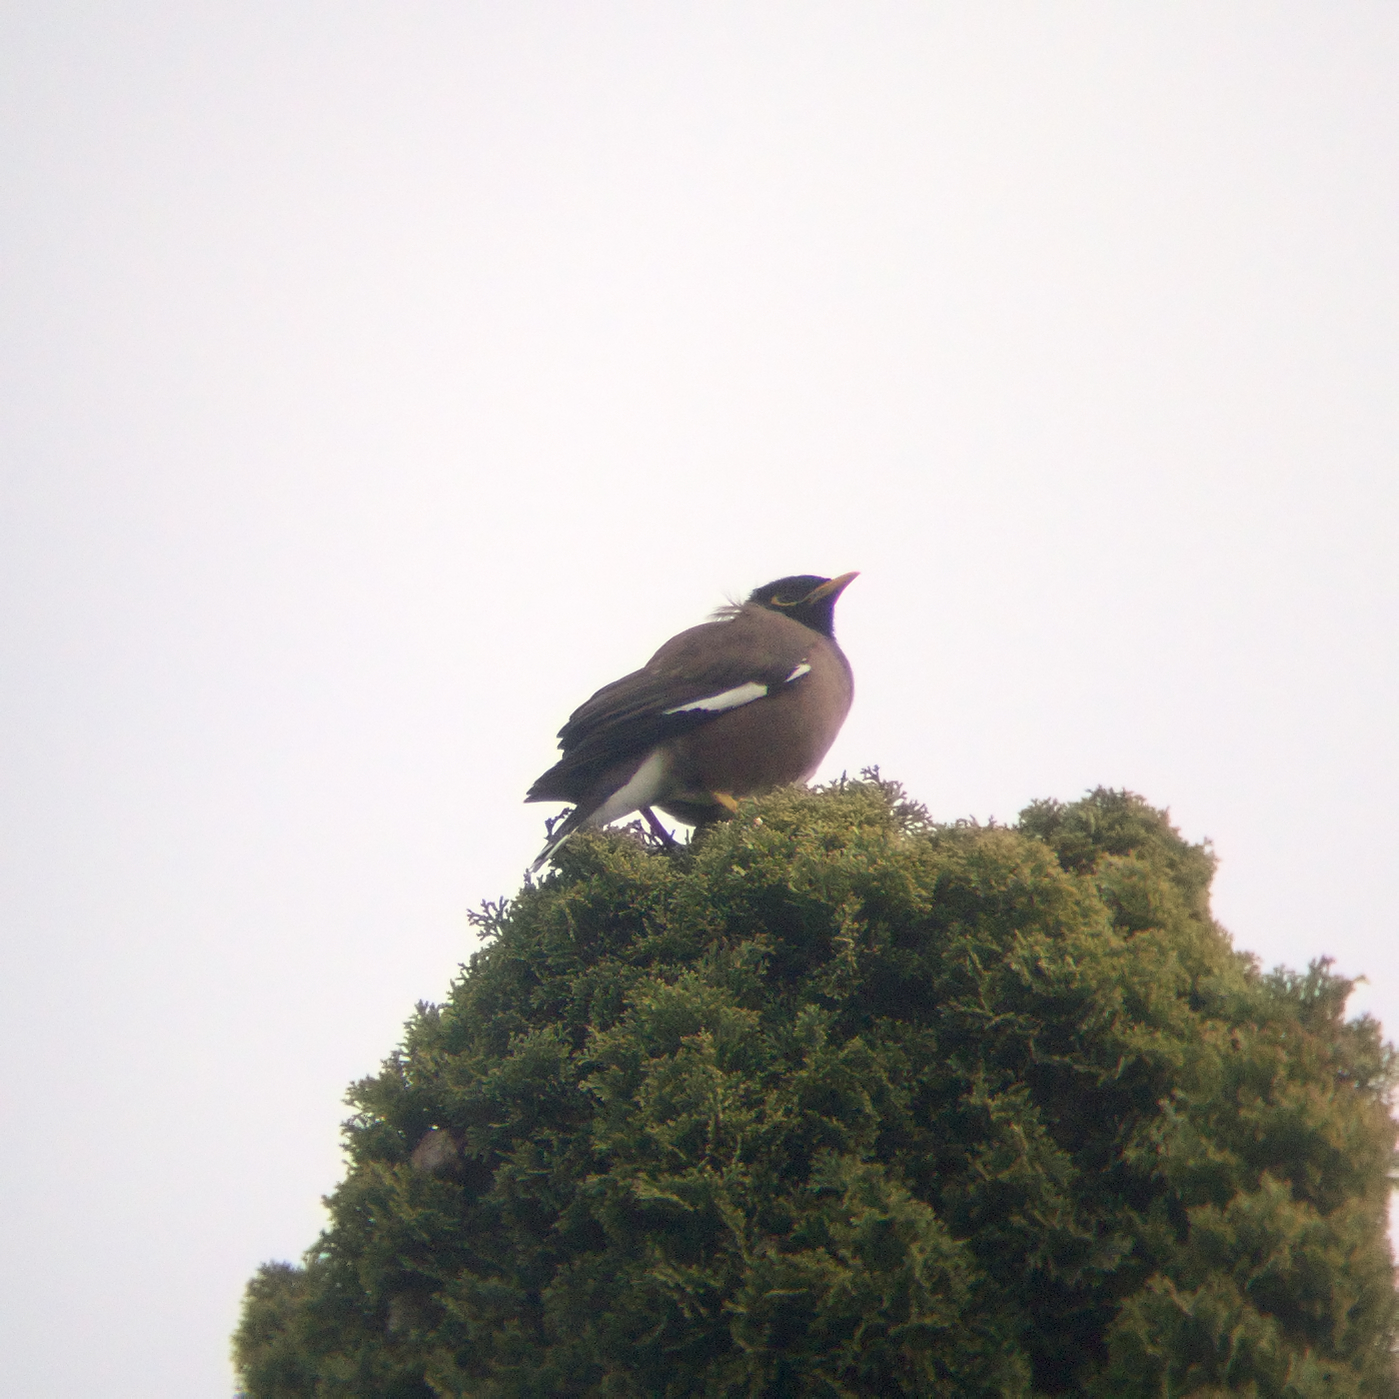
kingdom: Animalia
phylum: Chordata
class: Aves
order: Passeriformes
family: Sturnidae
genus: Acridotheres
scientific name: Acridotheres tristis
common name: Common myna
